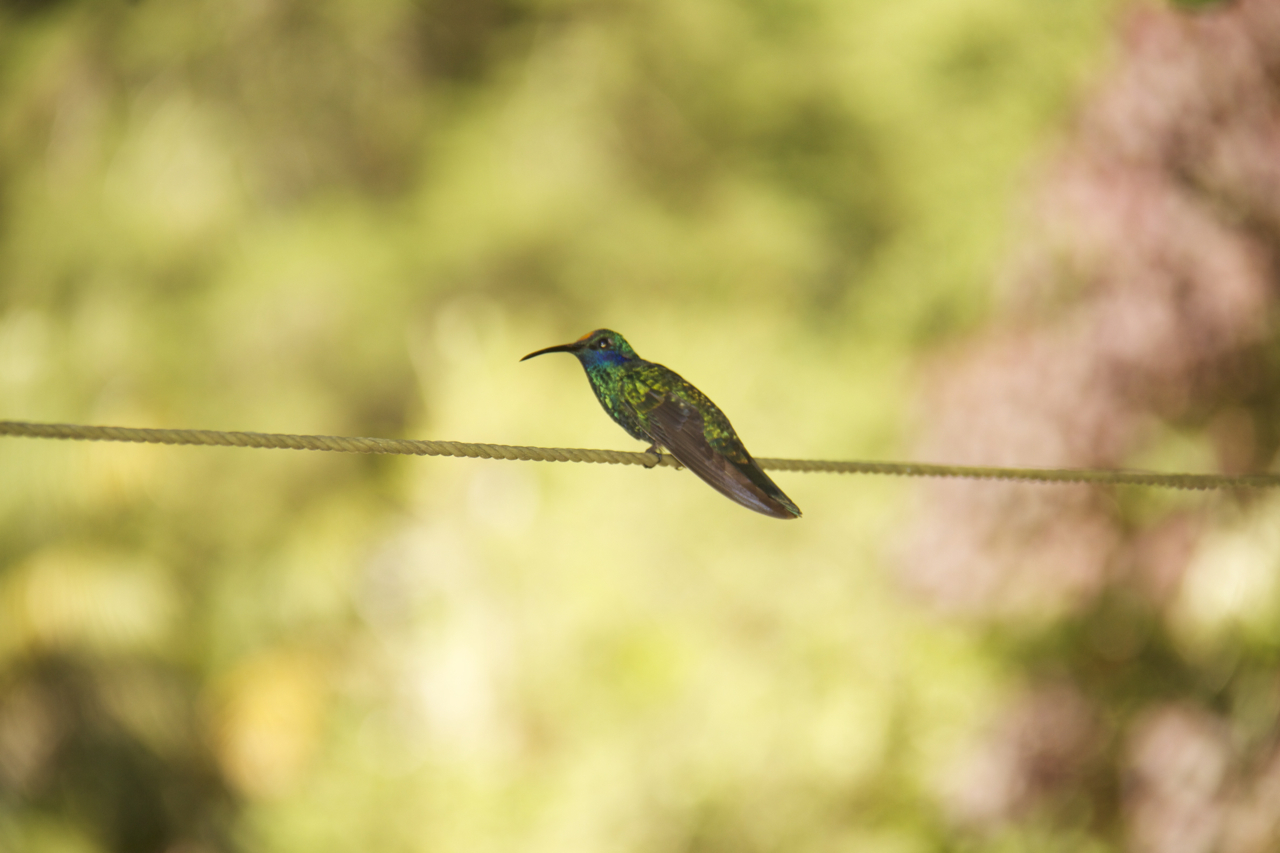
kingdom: Animalia
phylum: Chordata
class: Aves
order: Apodiformes
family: Trochilidae
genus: Colibri
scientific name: Colibri coruscans
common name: Sparkling violetear
